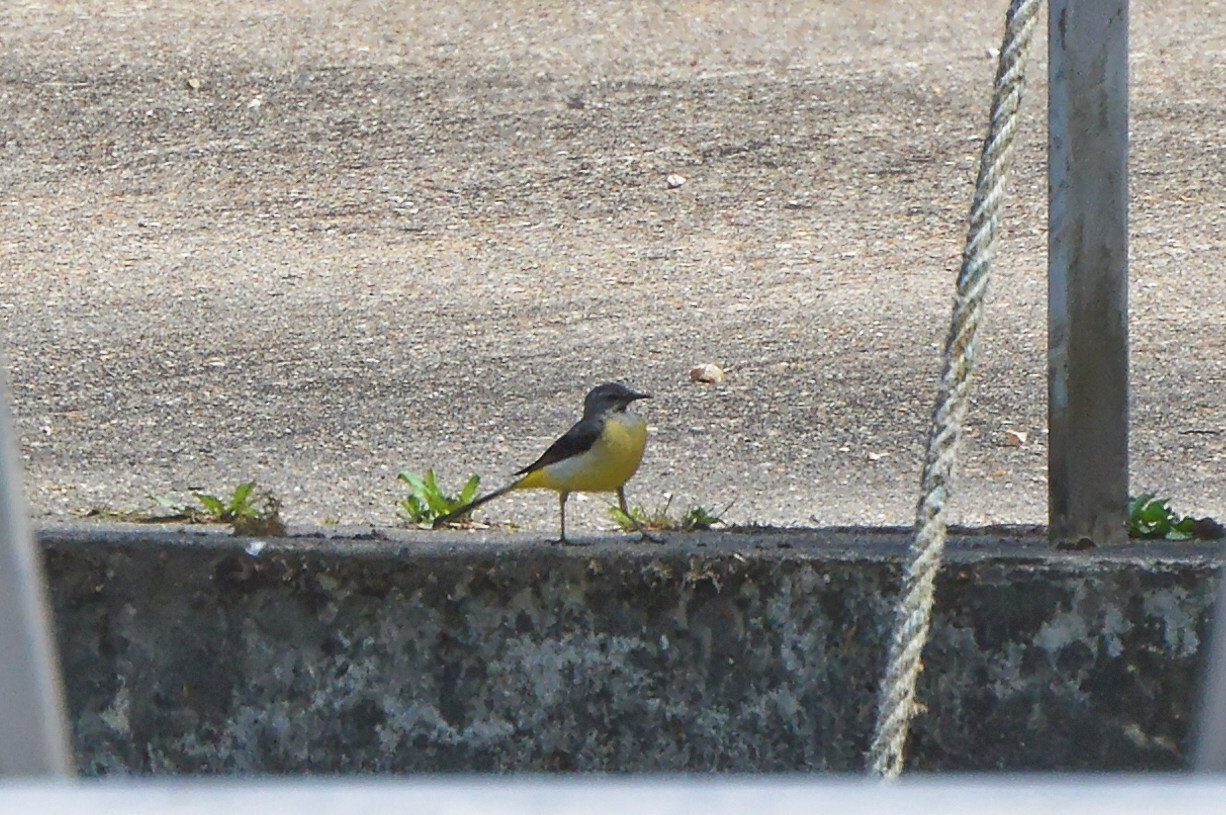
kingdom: Animalia
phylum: Chordata
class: Aves
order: Passeriformes
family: Motacillidae
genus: Motacilla
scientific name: Motacilla cinerea
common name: Grey wagtail
